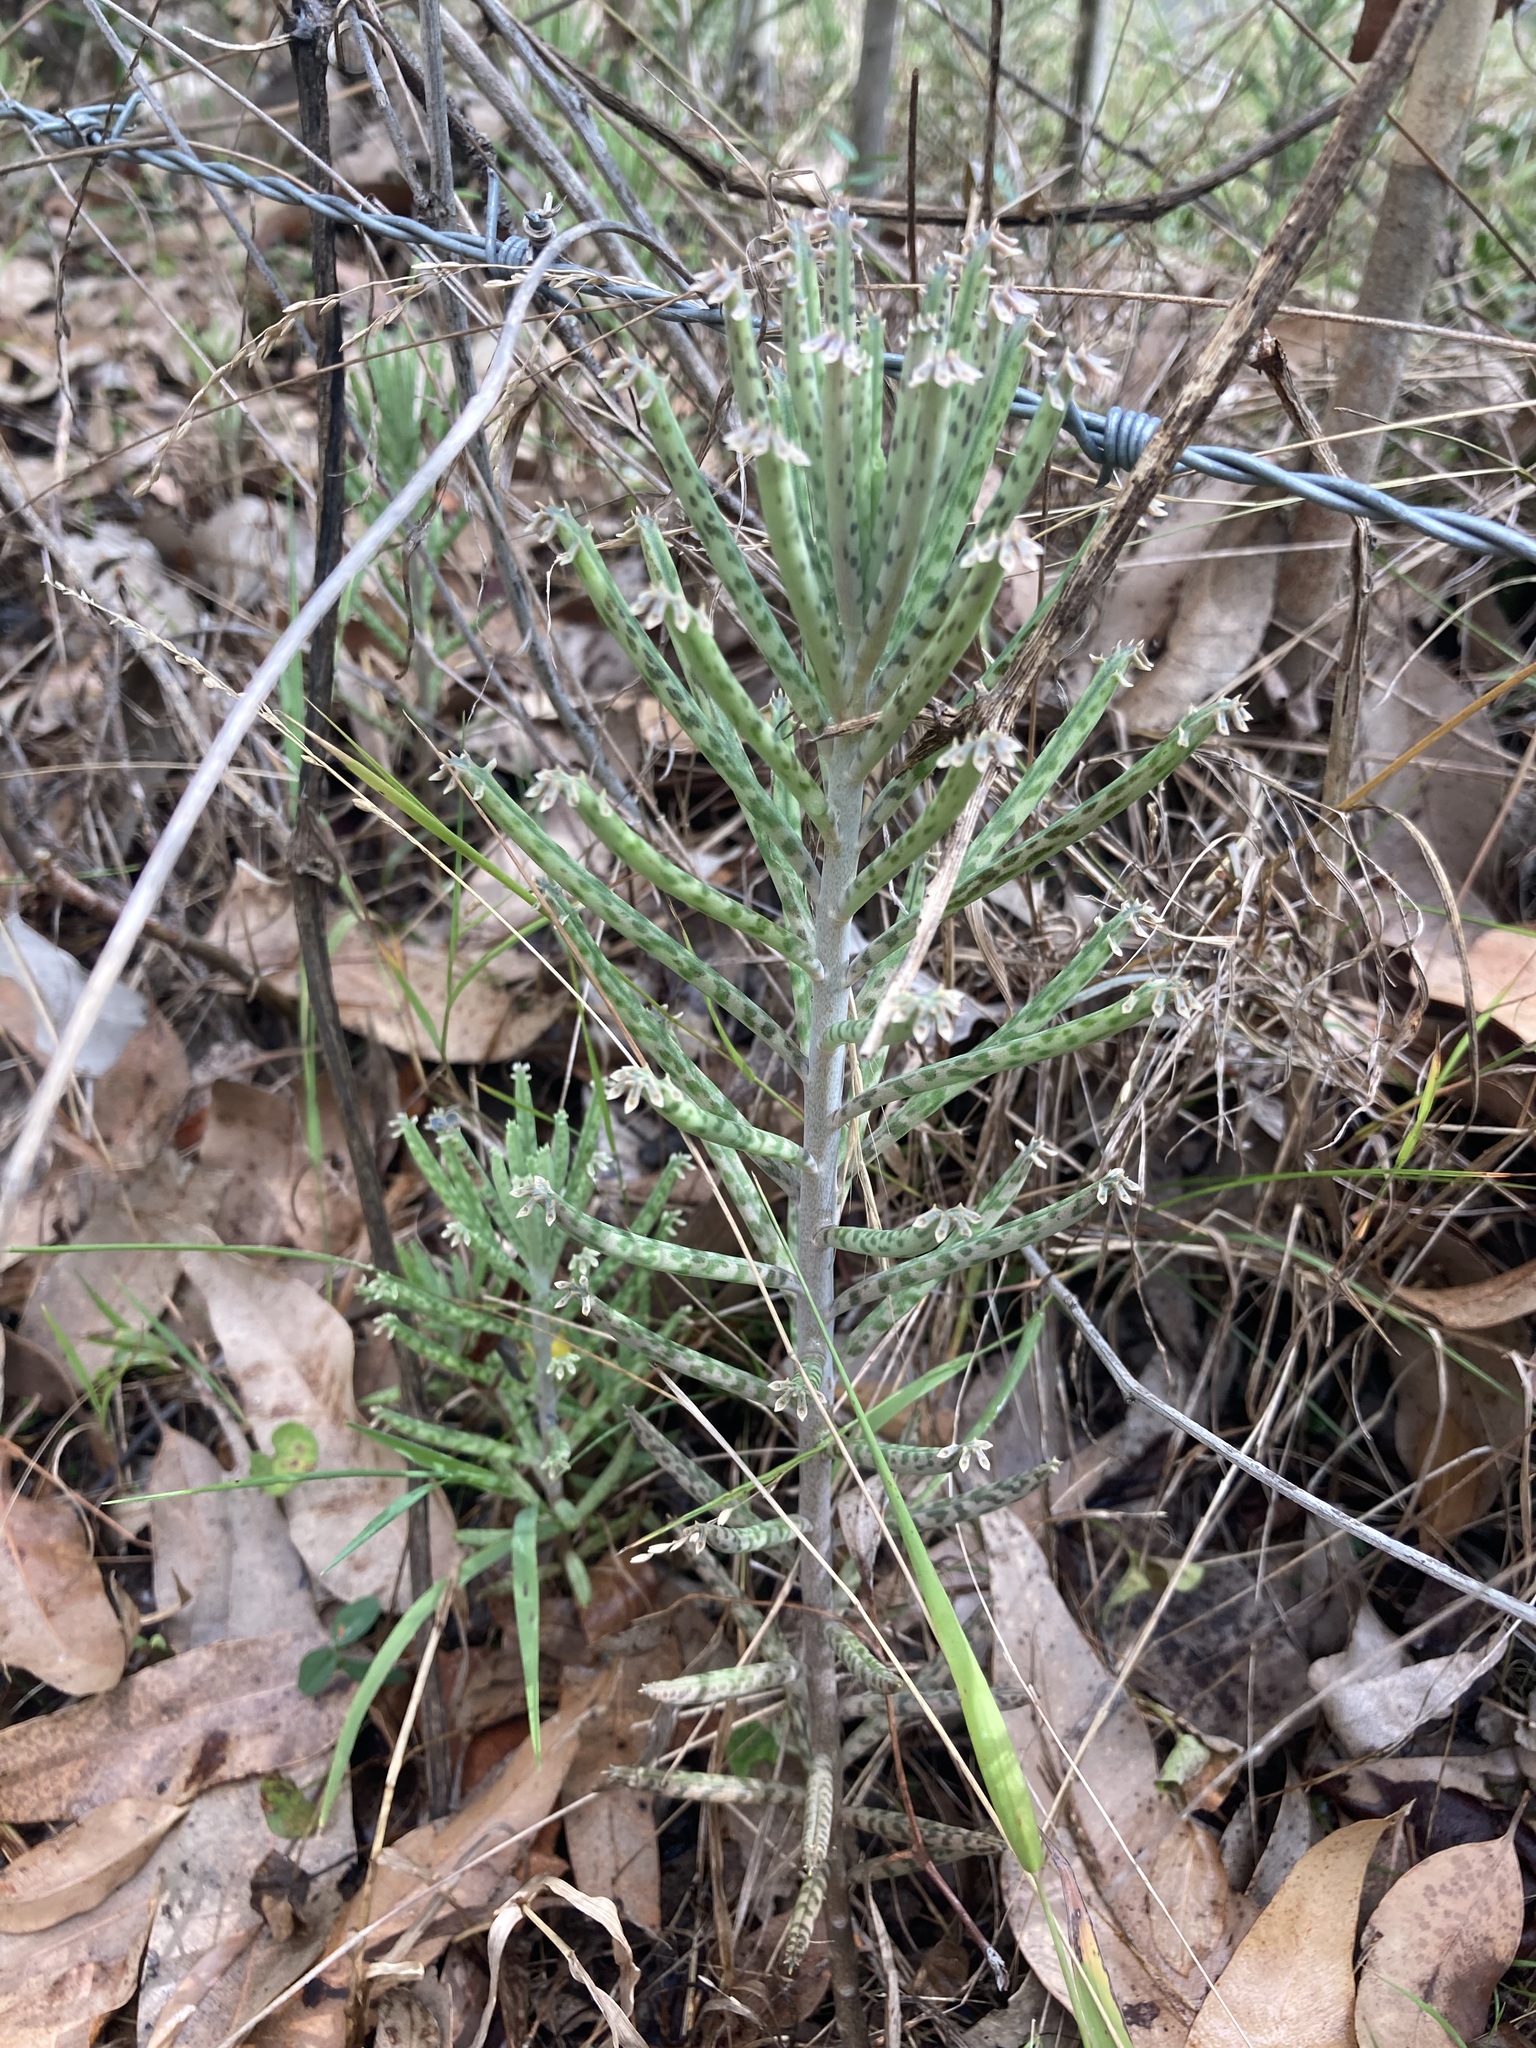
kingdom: Plantae
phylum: Tracheophyta
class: Magnoliopsida
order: Saxifragales
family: Crassulaceae
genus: Kalanchoe
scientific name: Kalanchoe delagoensis
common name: Chandelier plant
